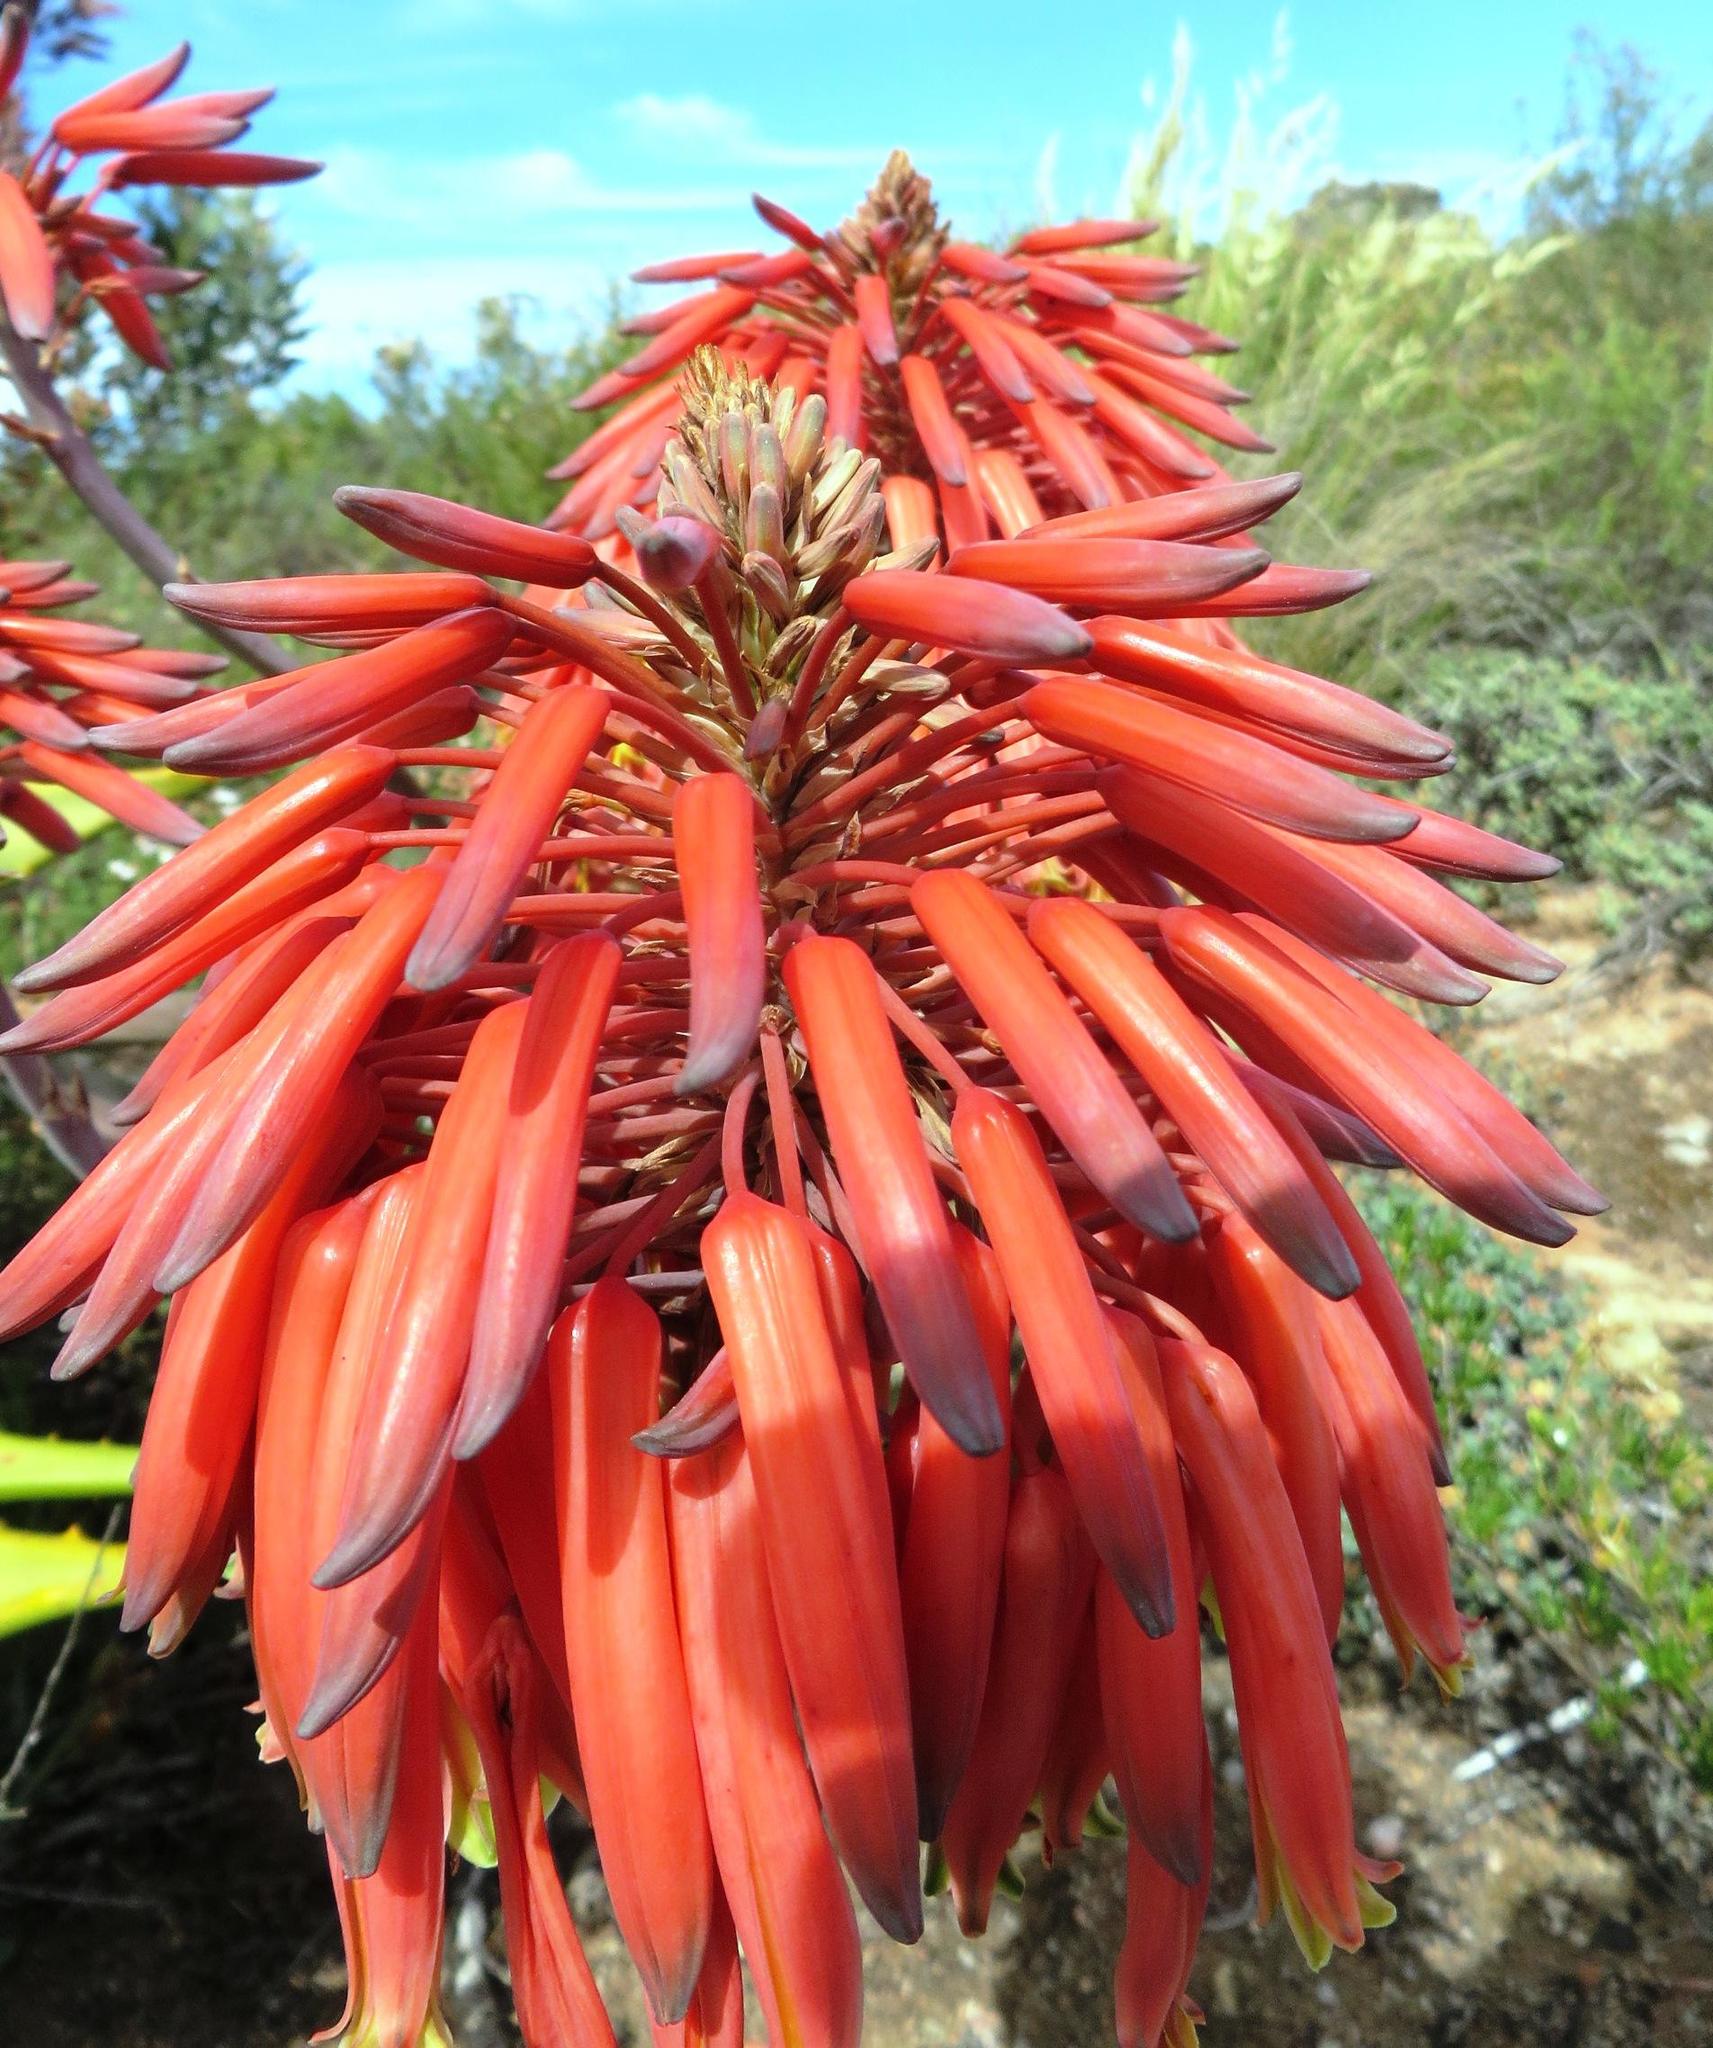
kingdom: Plantae
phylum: Tracheophyta
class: Liliopsida
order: Asparagales
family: Asphodelaceae
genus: Aloe
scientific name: Aloe perfoliata
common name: Mitra aloe
